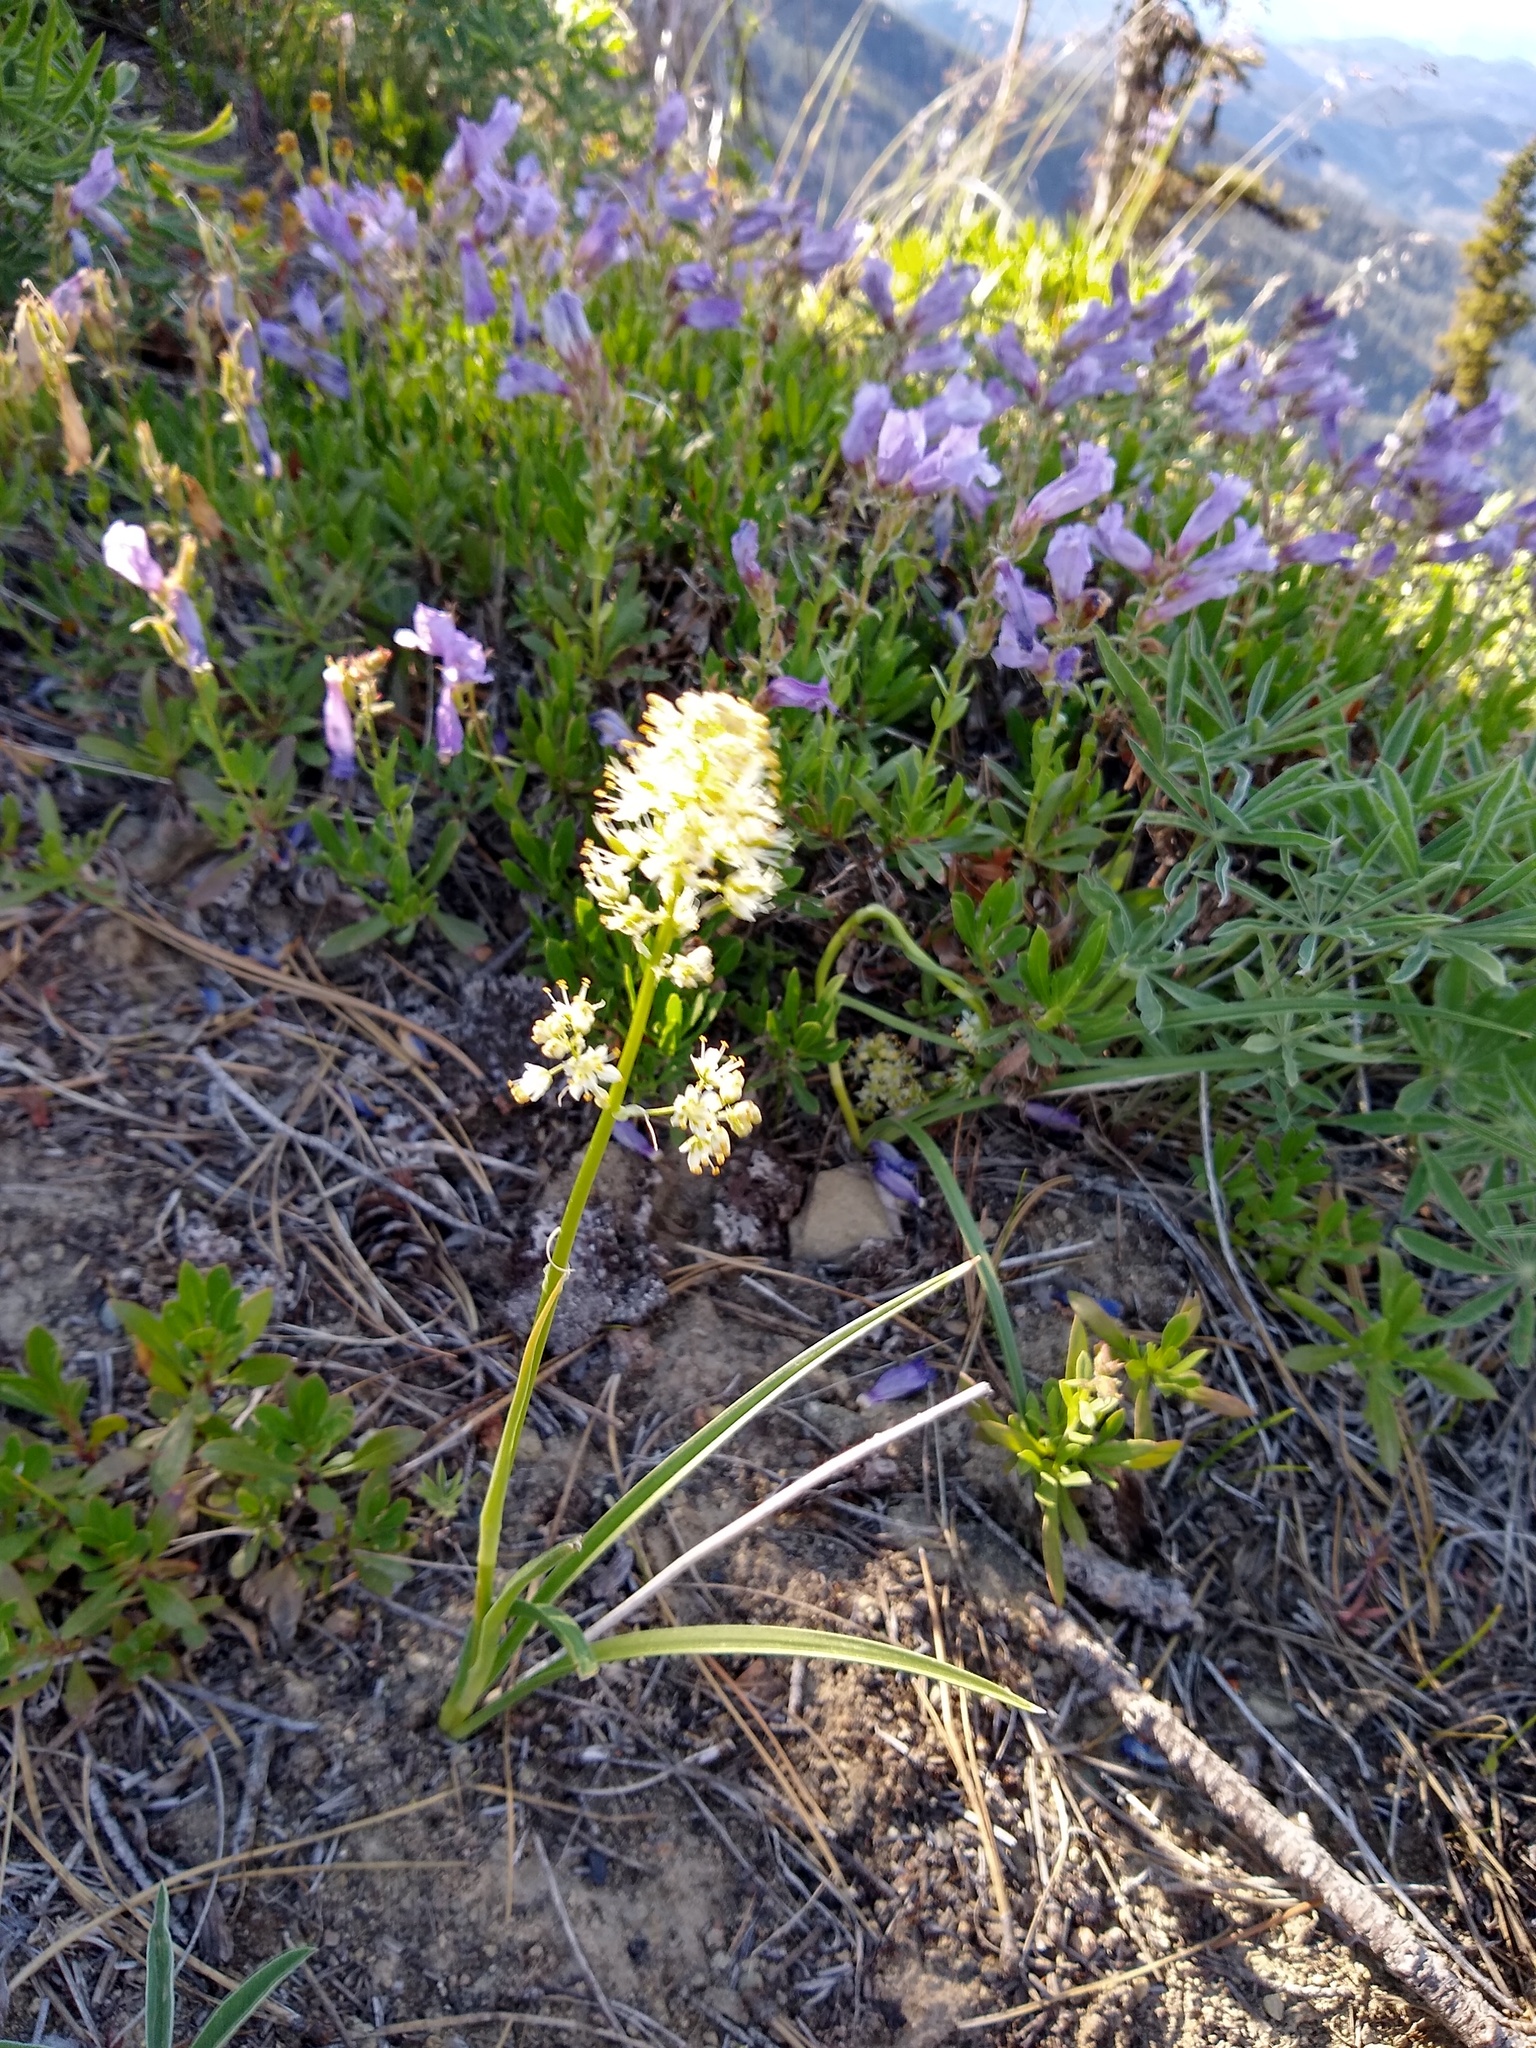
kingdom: Plantae
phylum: Tracheophyta
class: Liliopsida
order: Liliales
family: Melanthiaceae
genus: Toxicoscordion
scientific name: Toxicoscordion paniculatum
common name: Foothill death camas
